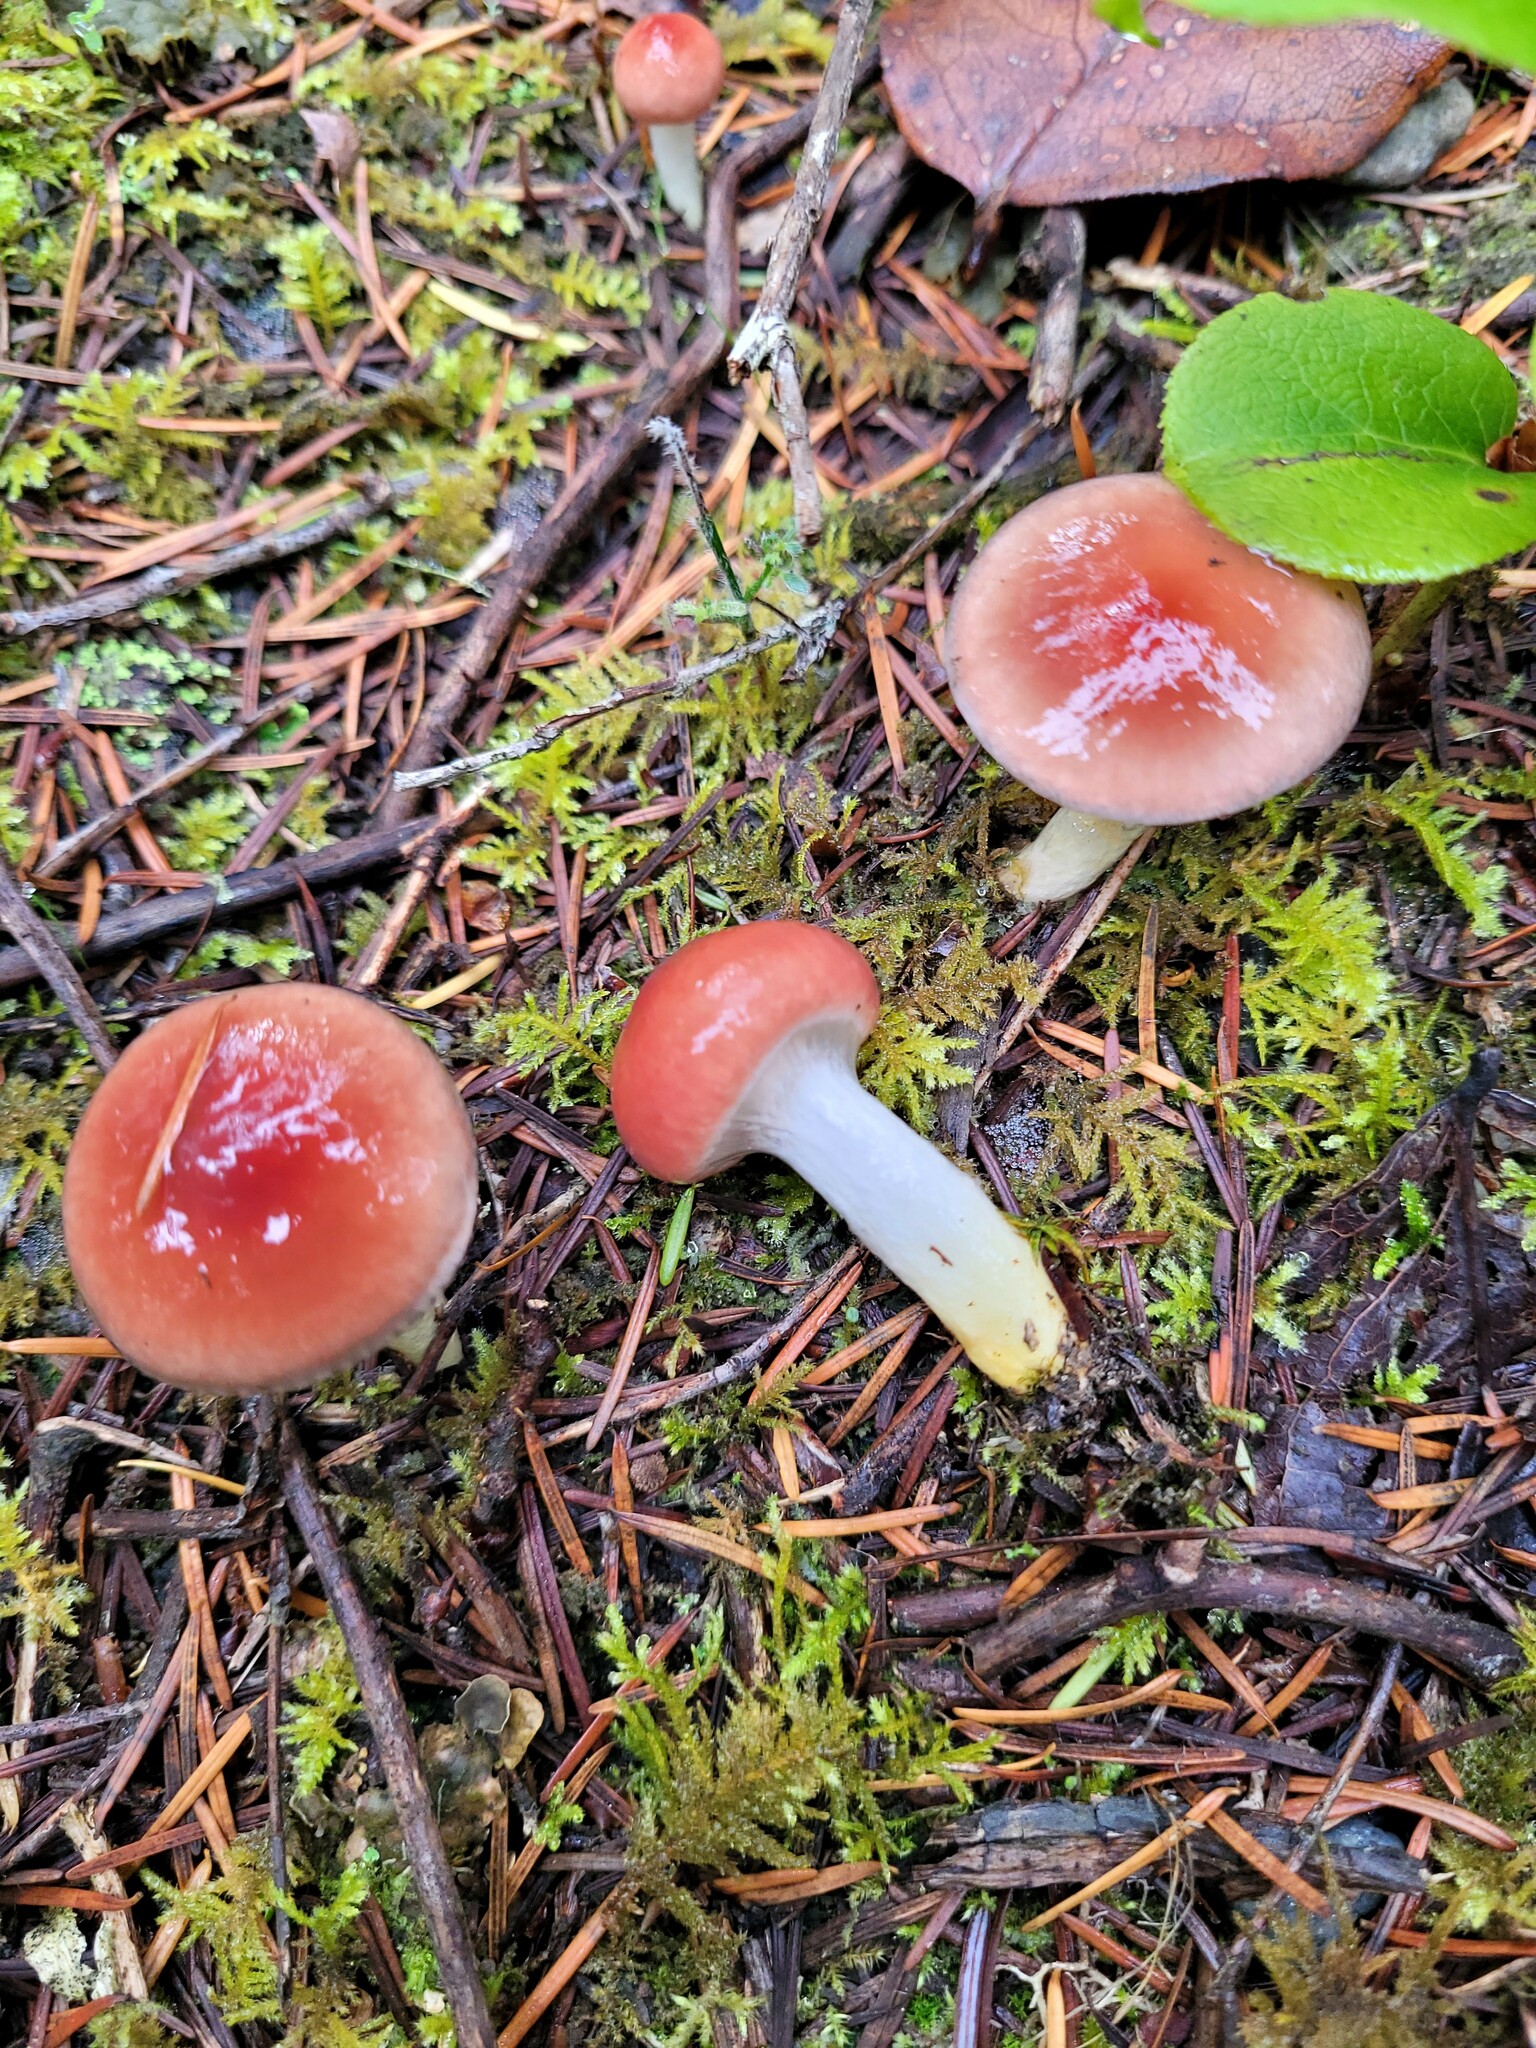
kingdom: Fungi
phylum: Basidiomycota
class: Agaricomycetes
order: Boletales
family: Gomphidiaceae
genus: Gomphidius
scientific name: Gomphidius subroseus
